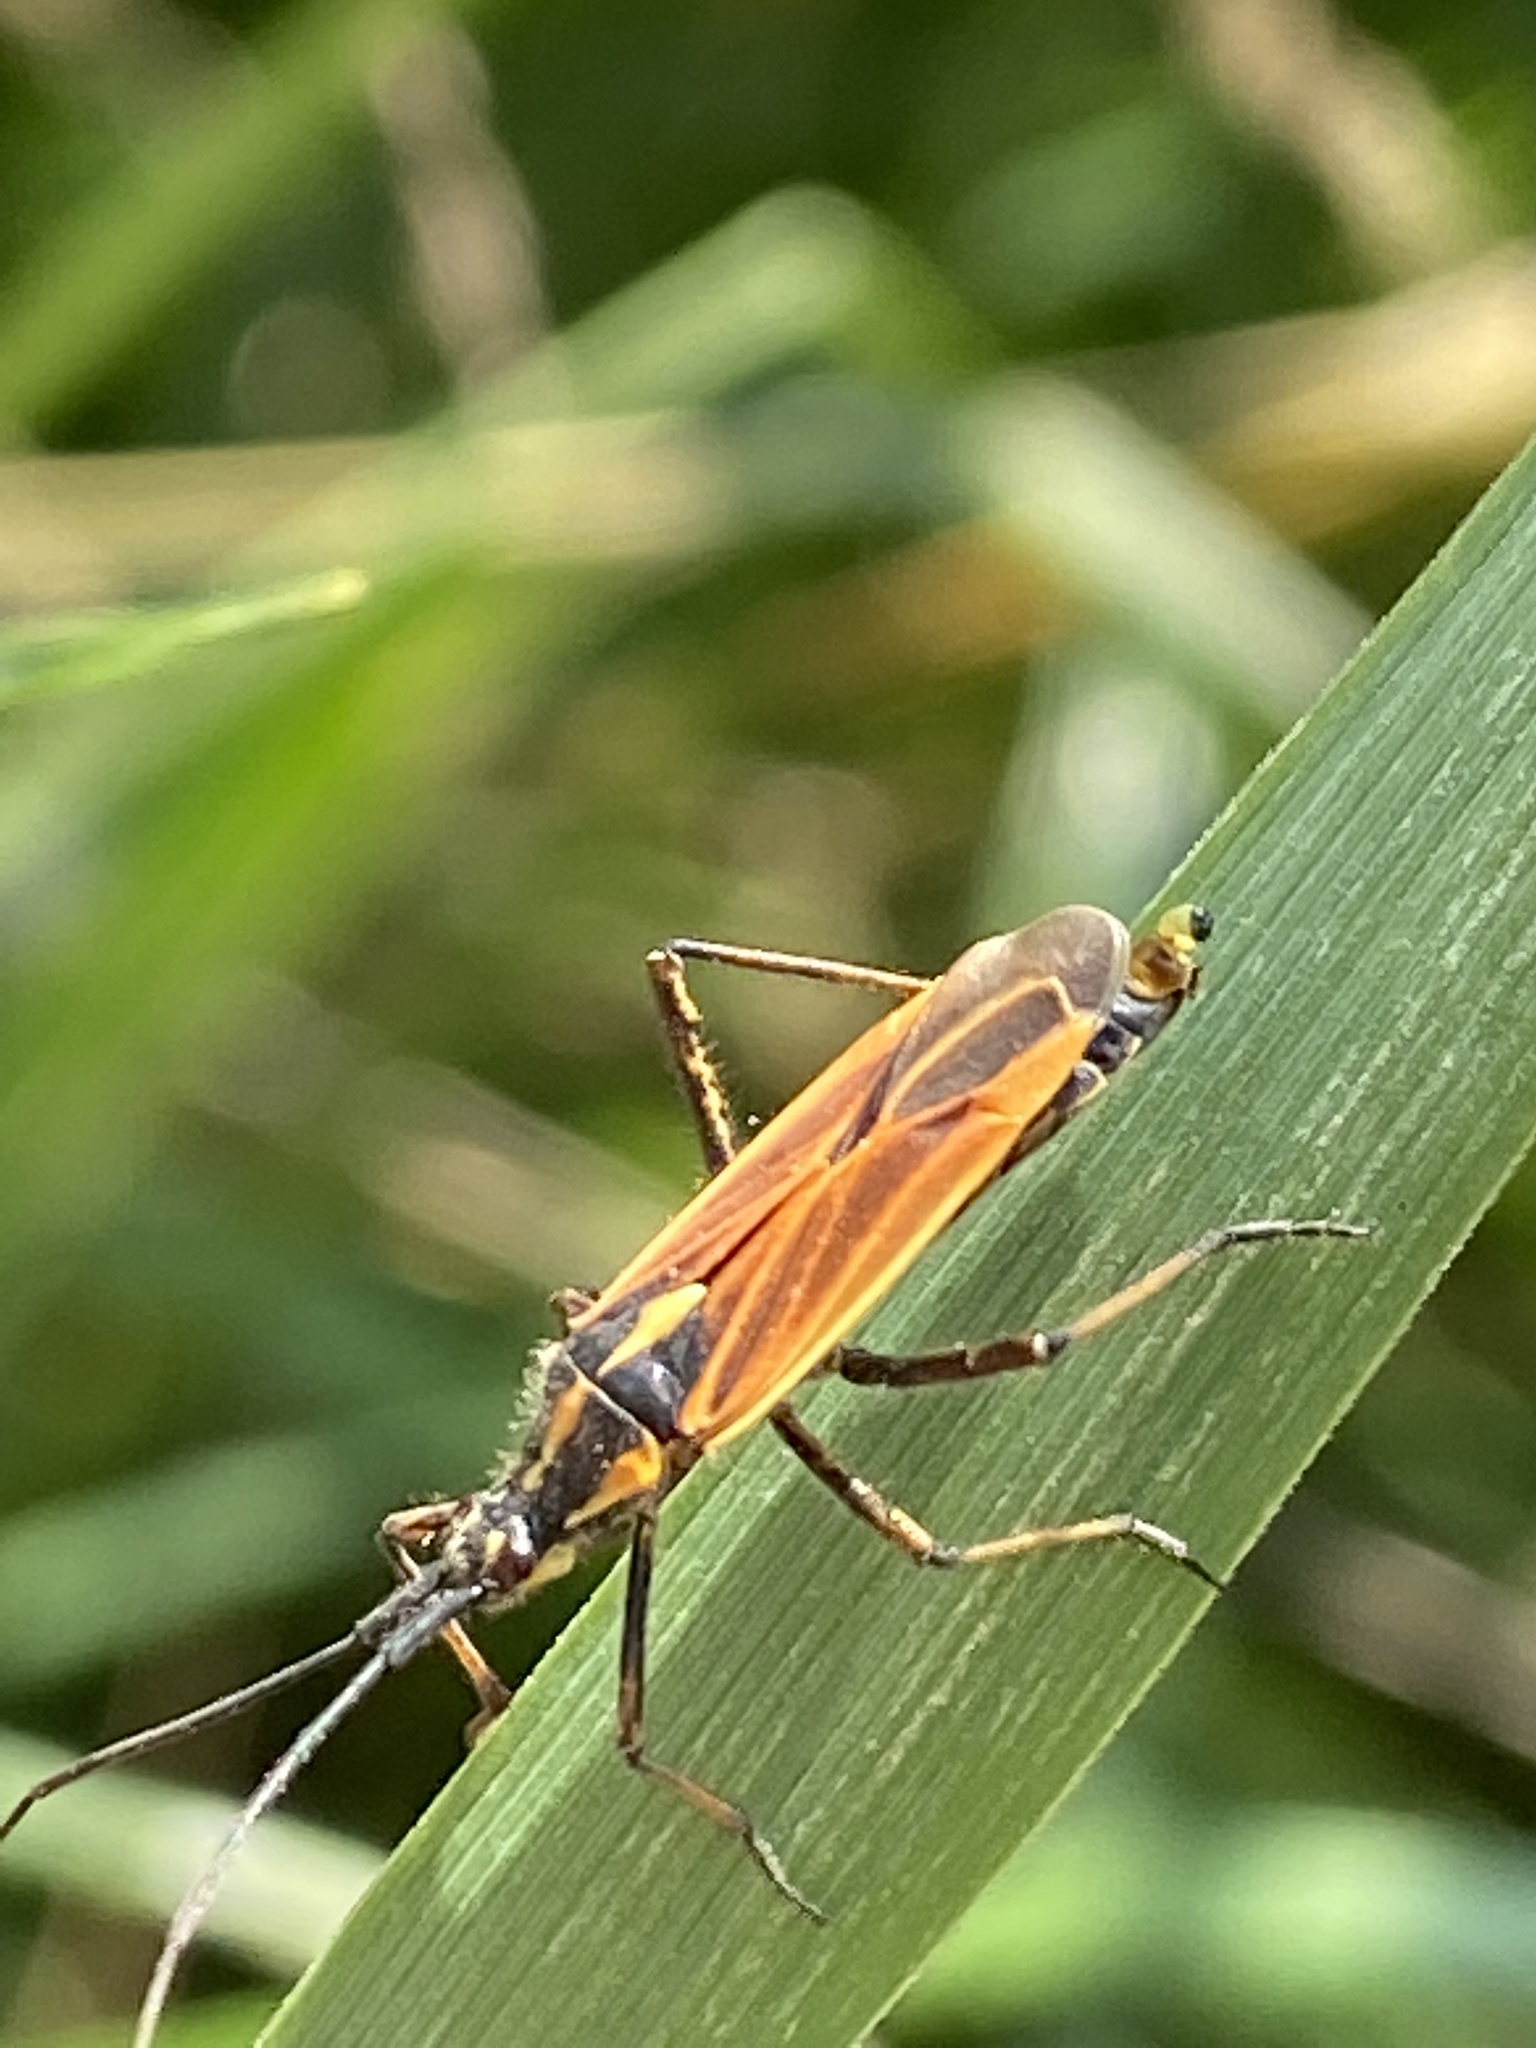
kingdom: Animalia
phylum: Arthropoda
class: Insecta
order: Hemiptera
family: Miridae
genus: Leptopterna
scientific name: Leptopterna dolabrata
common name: Meadow plant bug
